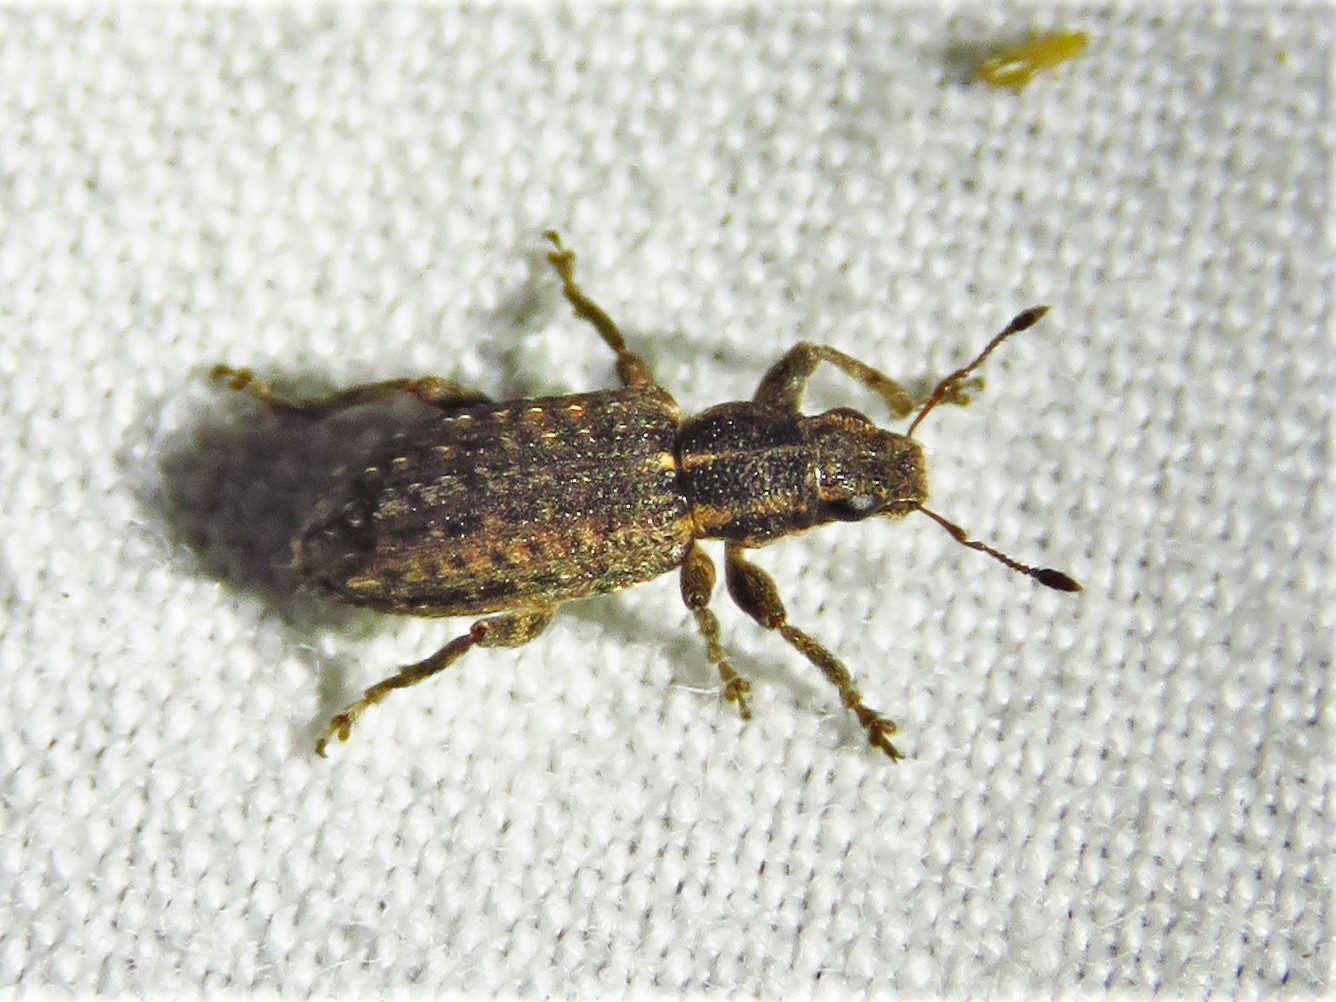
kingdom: Animalia
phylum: Arthropoda
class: Insecta
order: Coleoptera
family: Curculionidae
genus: Sitones
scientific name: Sitones californius
